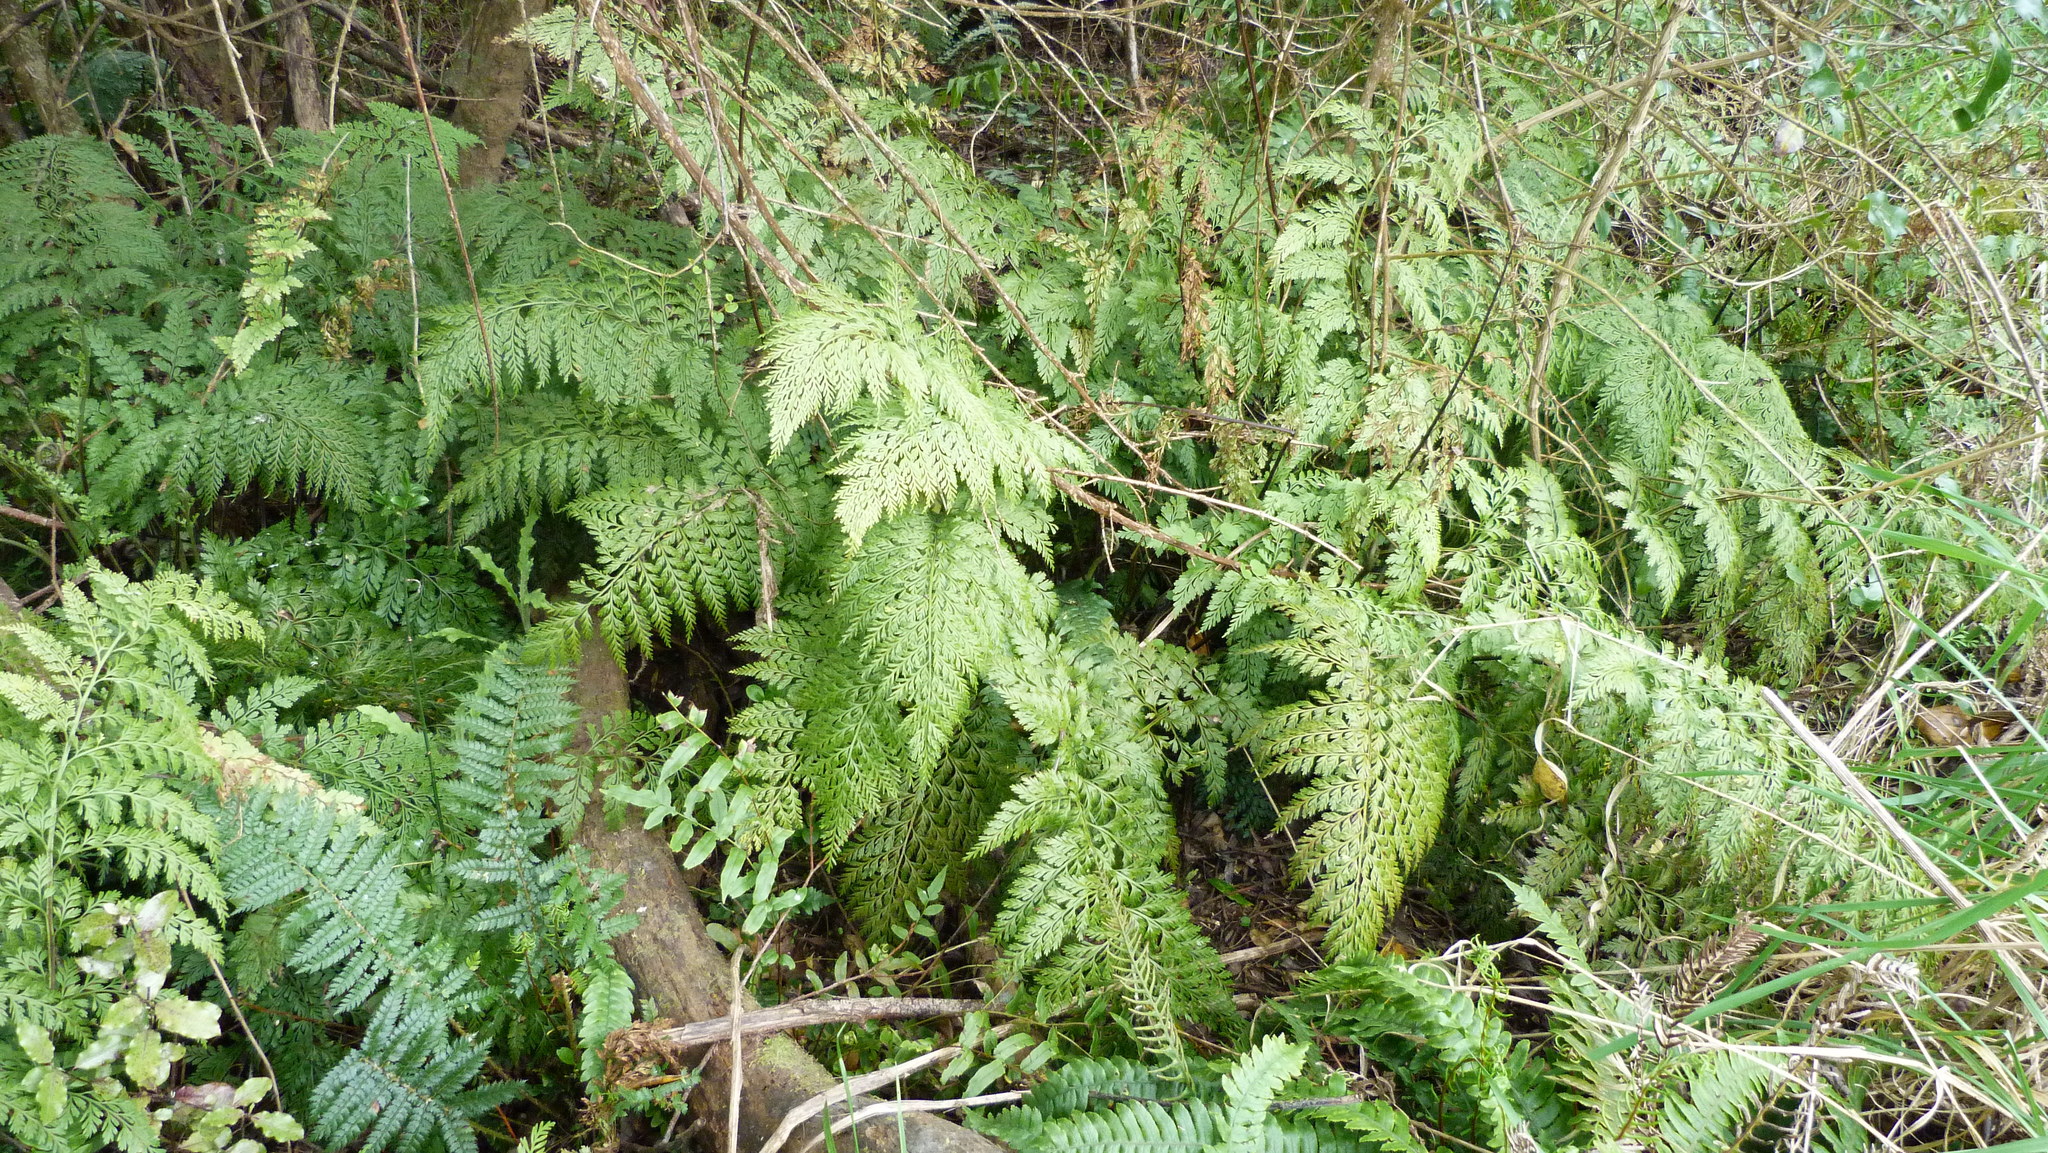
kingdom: Plantae
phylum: Tracheophyta
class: Polypodiopsida
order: Polypodiales
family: Aspleniaceae
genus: Asplenium
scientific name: Asplenium
